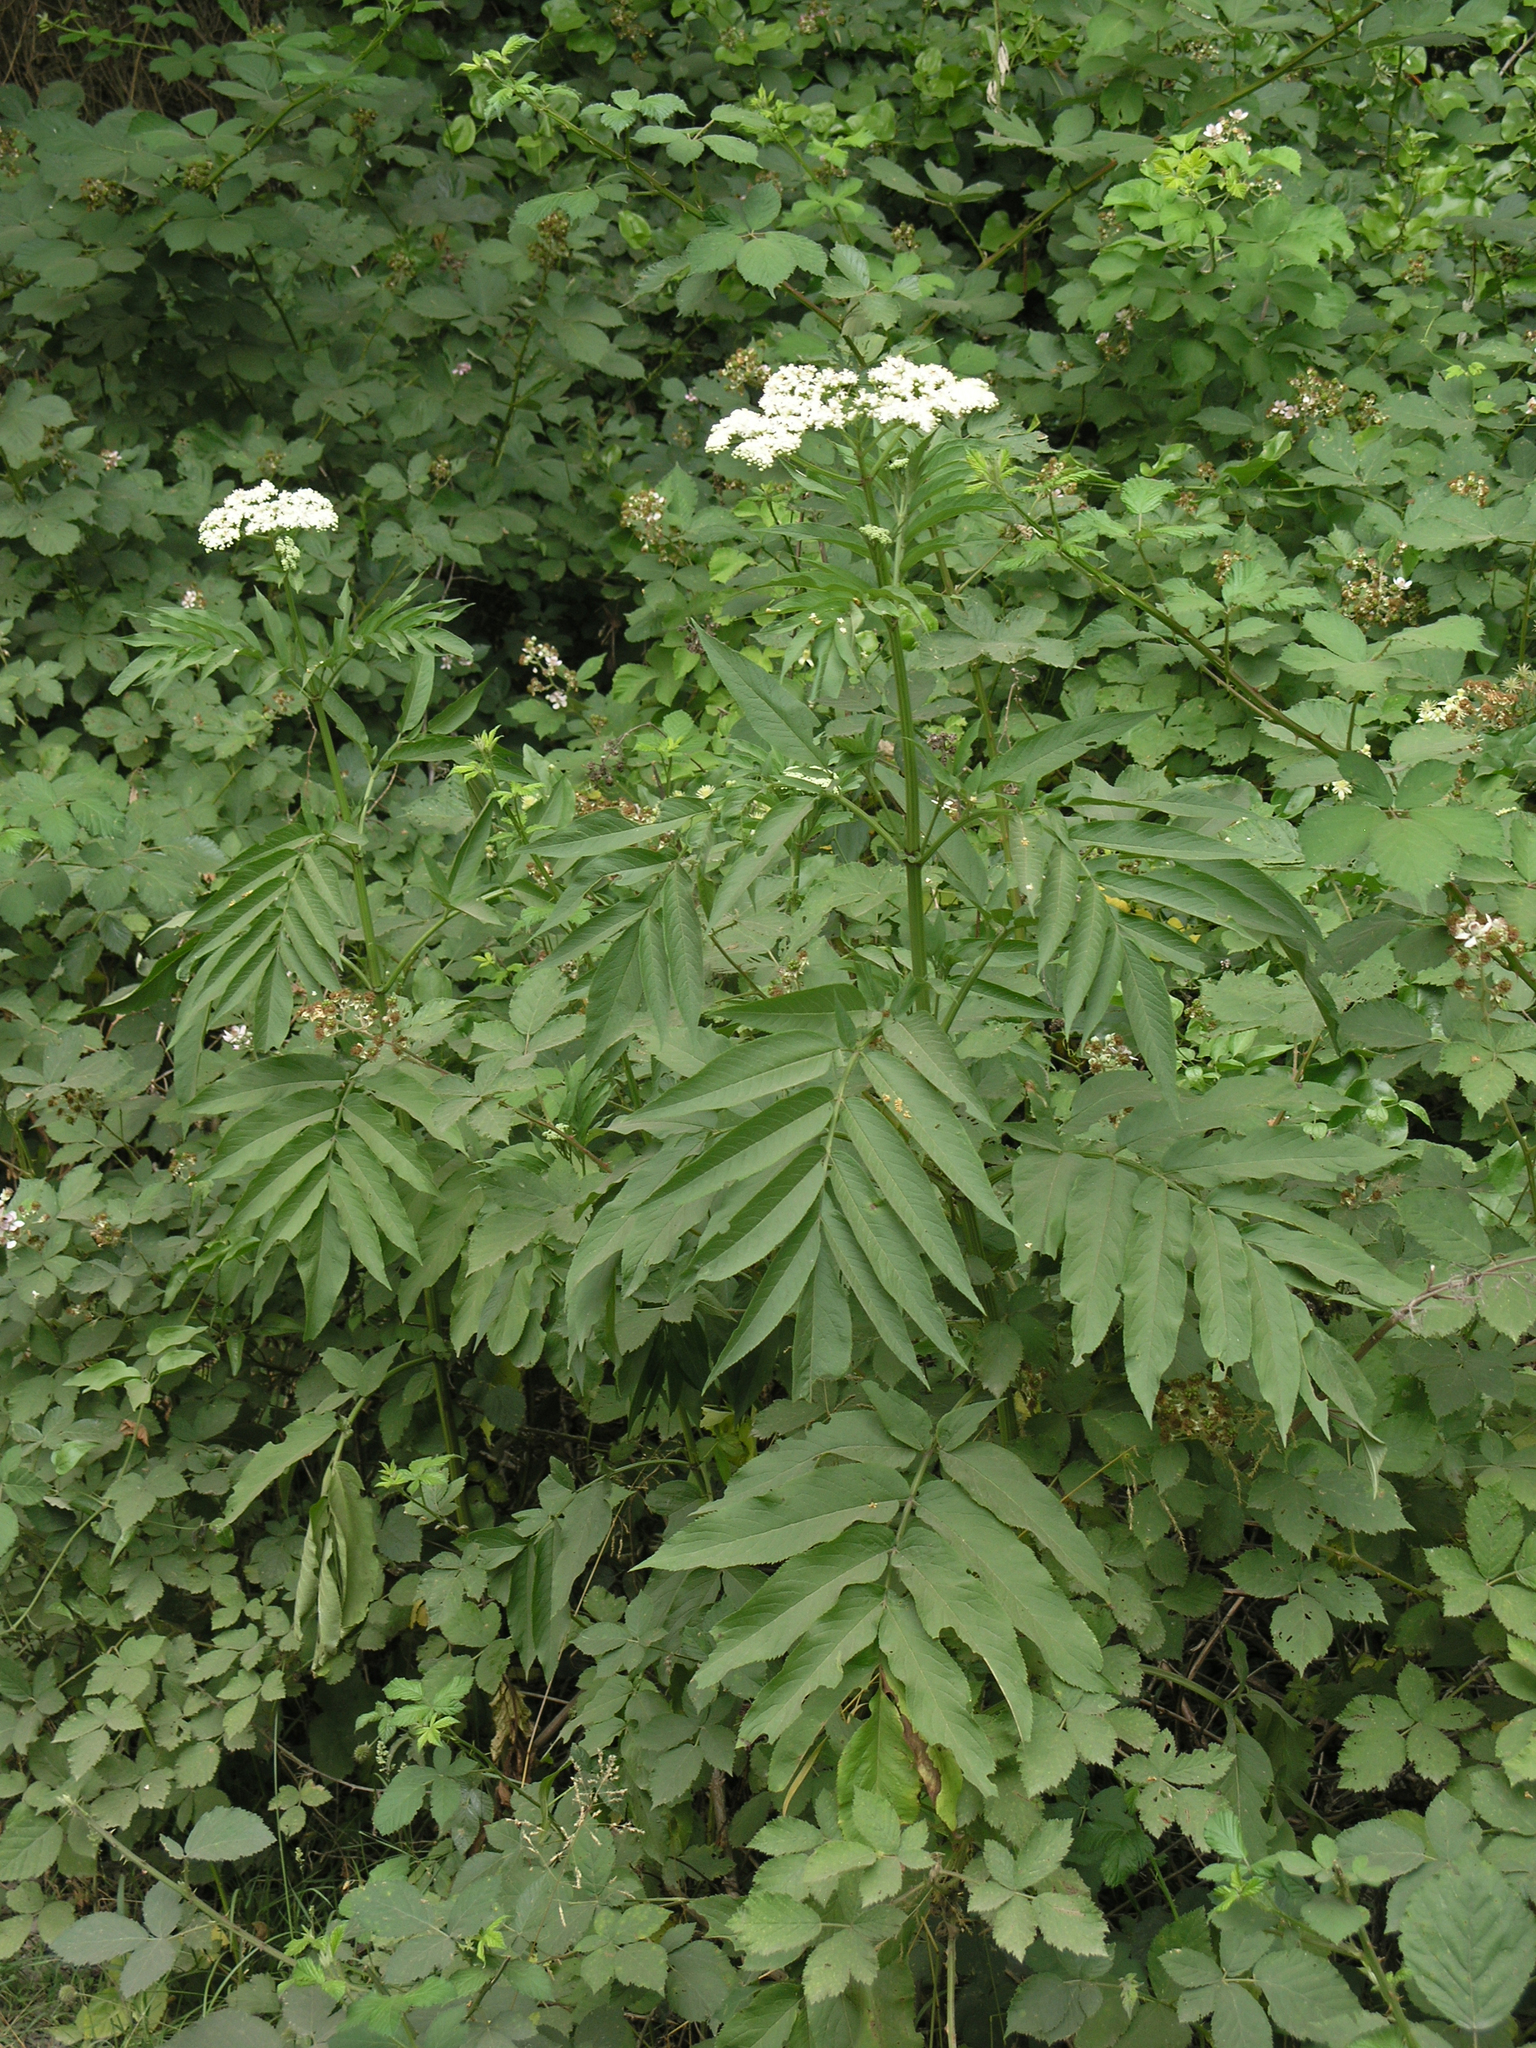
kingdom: Plantae
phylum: Tracheophyta
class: Magnoliopsida
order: Dipsacales
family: Viburnaceae
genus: Sambucus
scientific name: Sambucus ebulus
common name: Dwarf elder
